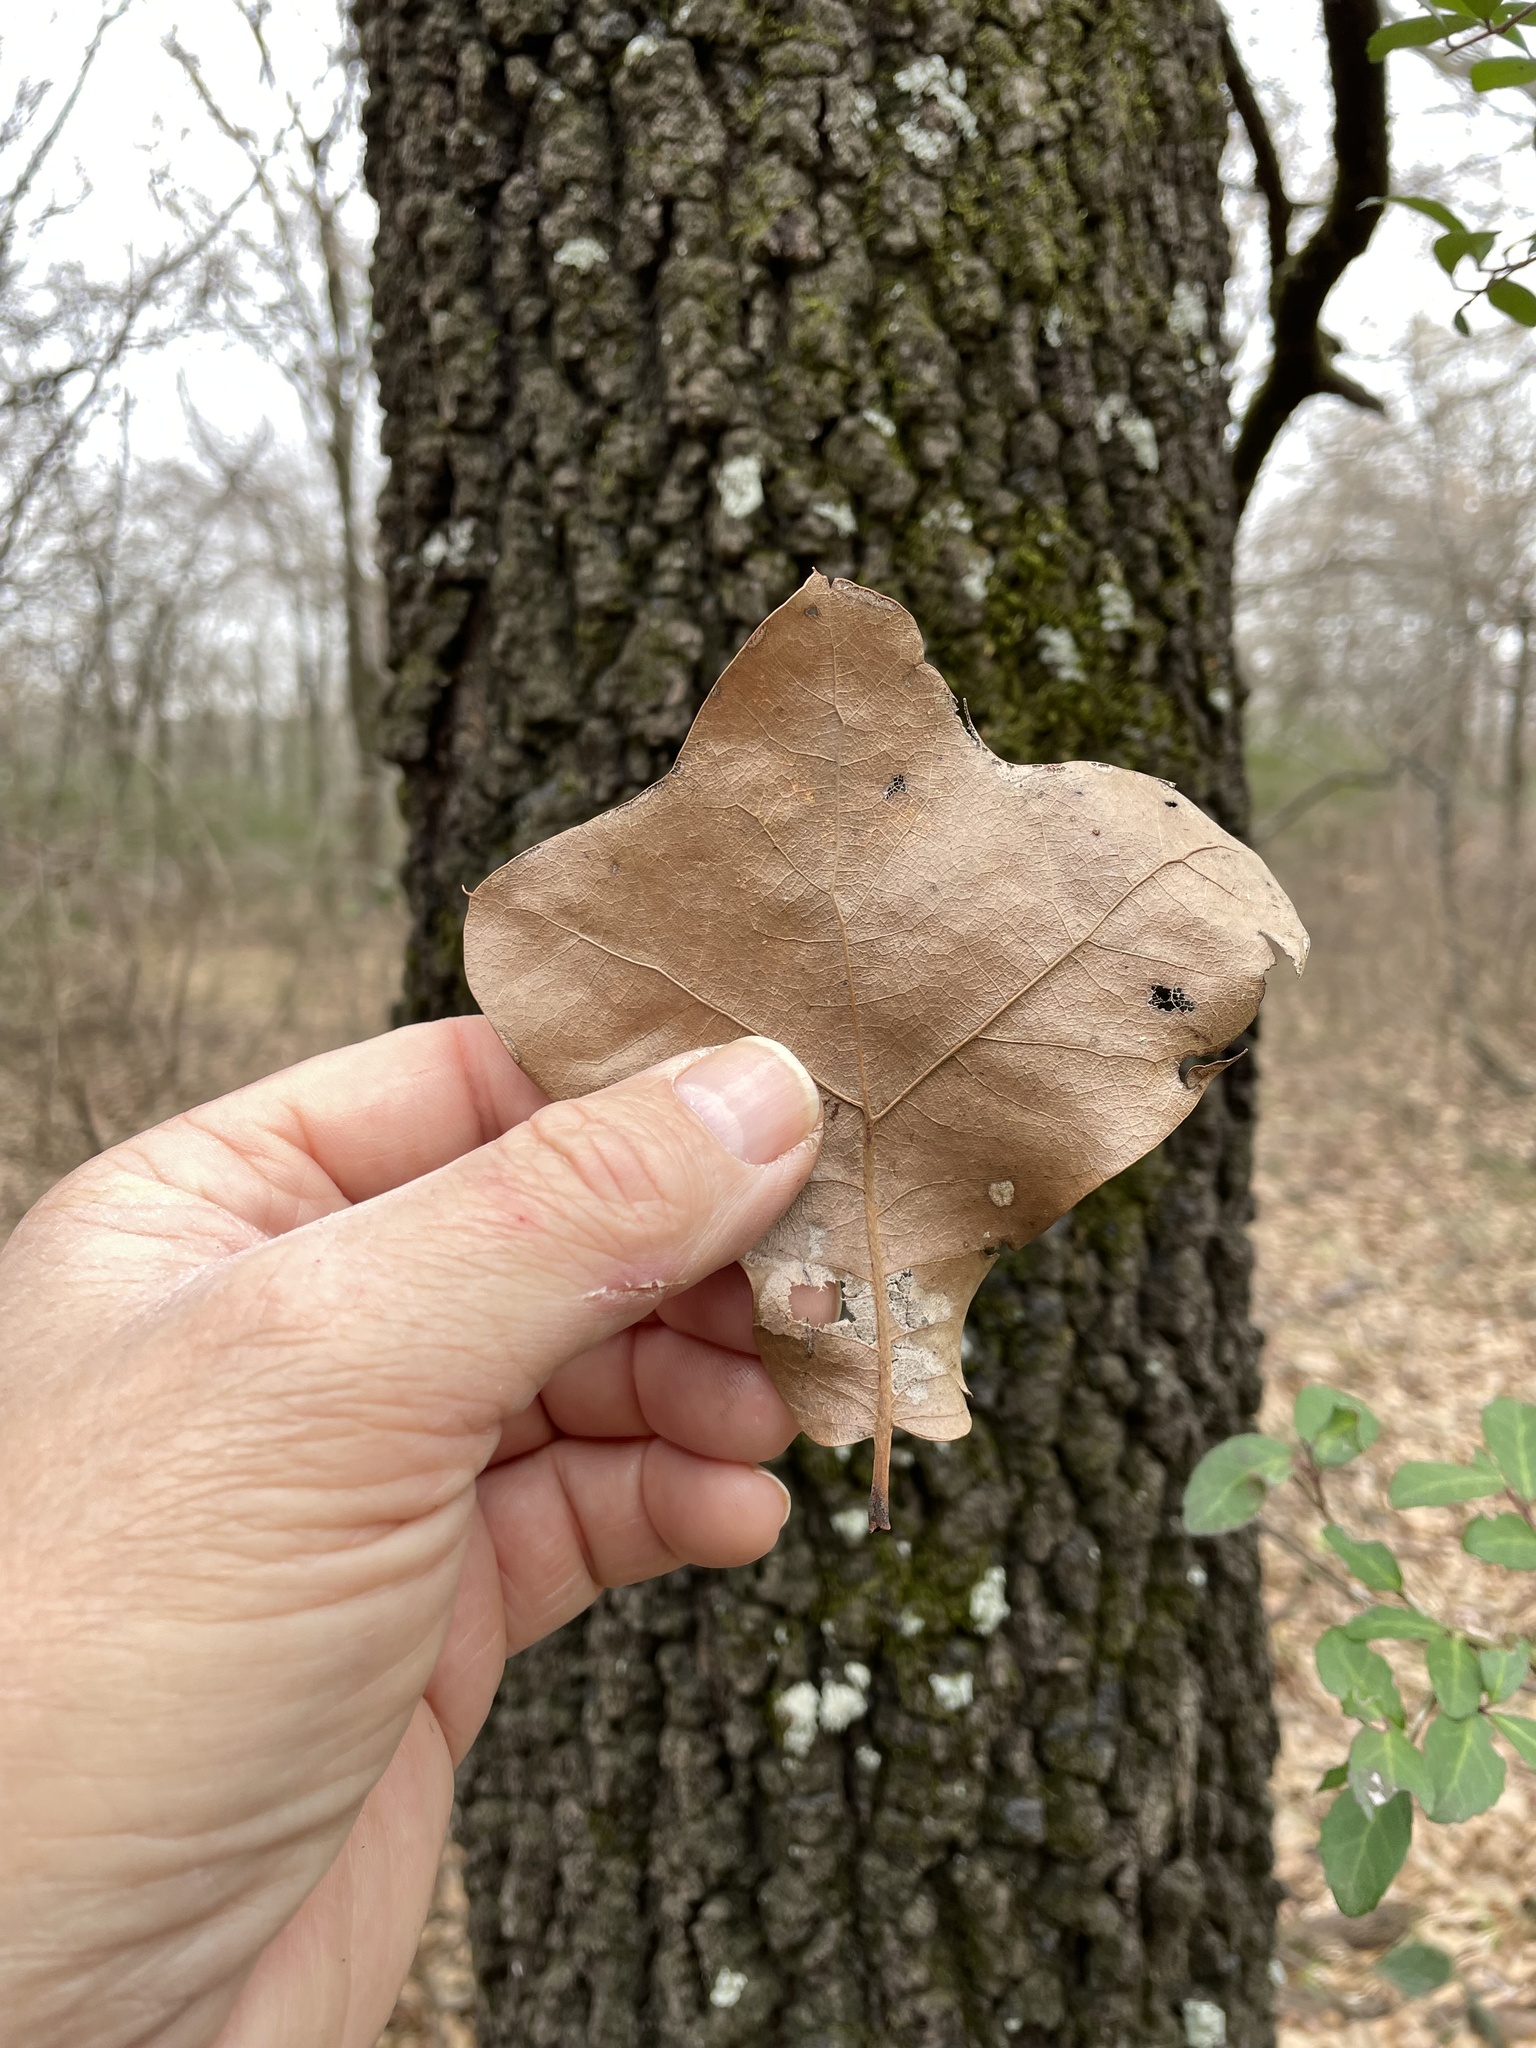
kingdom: Plantae
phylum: Tracheophyta
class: Magnoliopsida
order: Fagales
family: Fagaceae
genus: Quercus
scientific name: Quercus marilandica
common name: Blackjack oak
